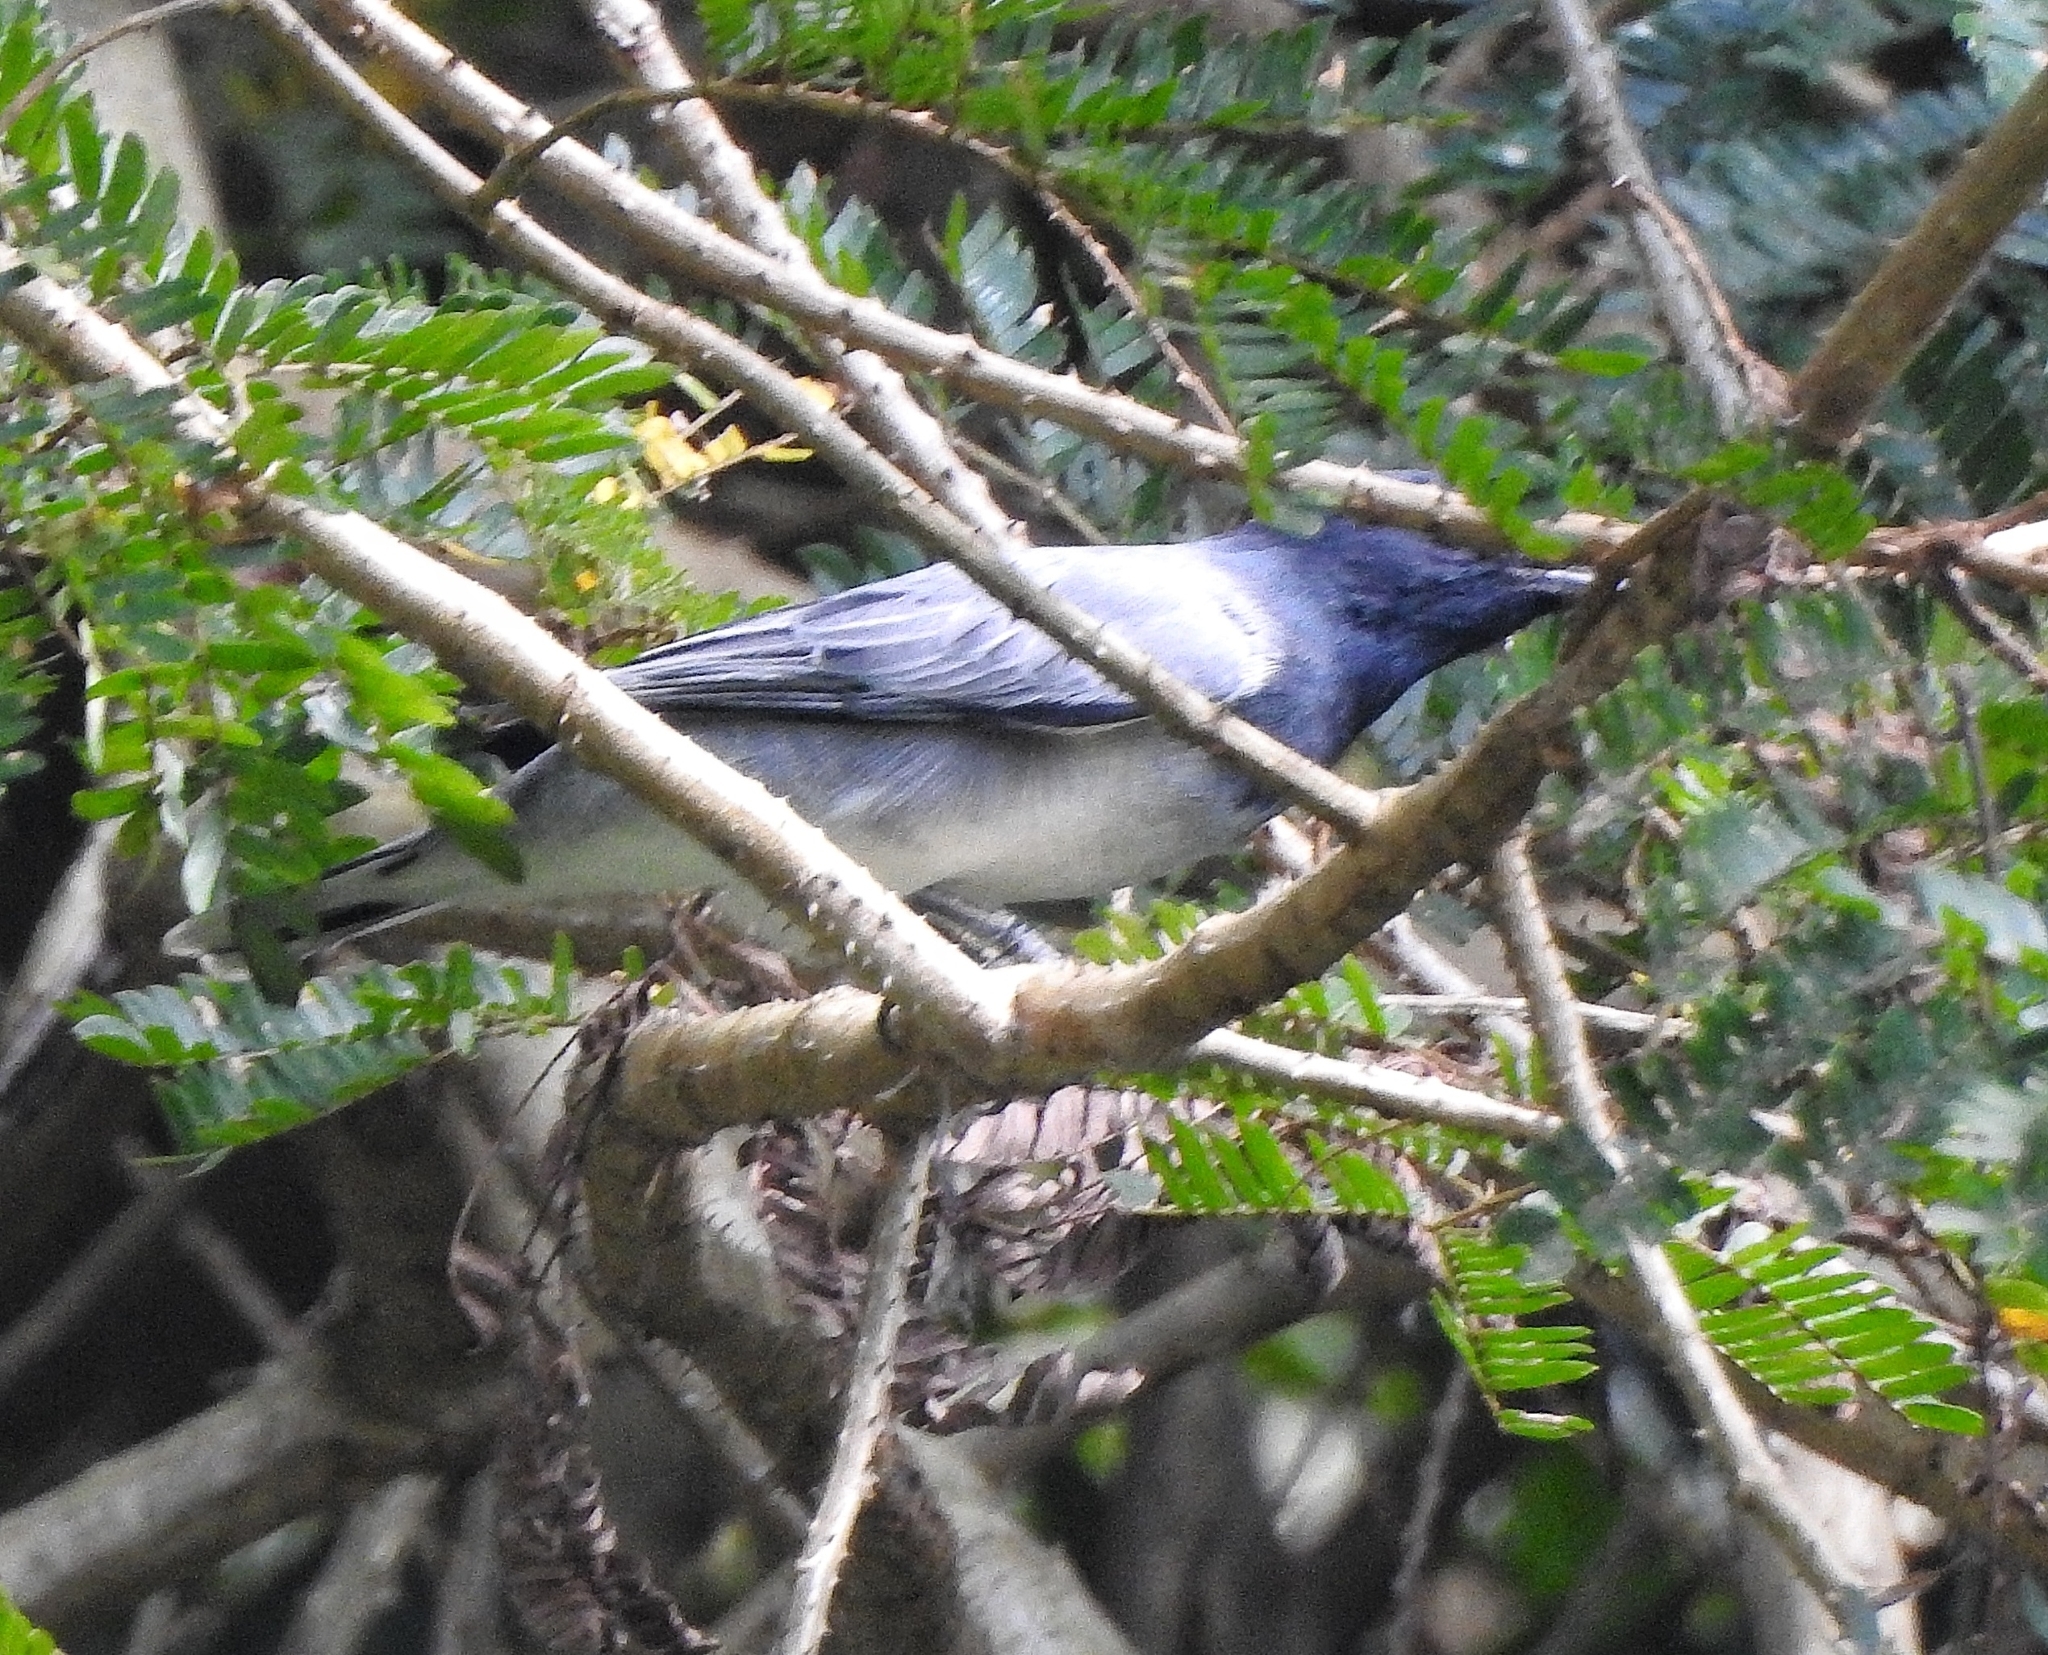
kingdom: Animalia
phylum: Chordata
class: Aves
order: Passeriformes
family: Campephagidae
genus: Coracina
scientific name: Coracina melanoptera
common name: Black-headed cuckooshrike
